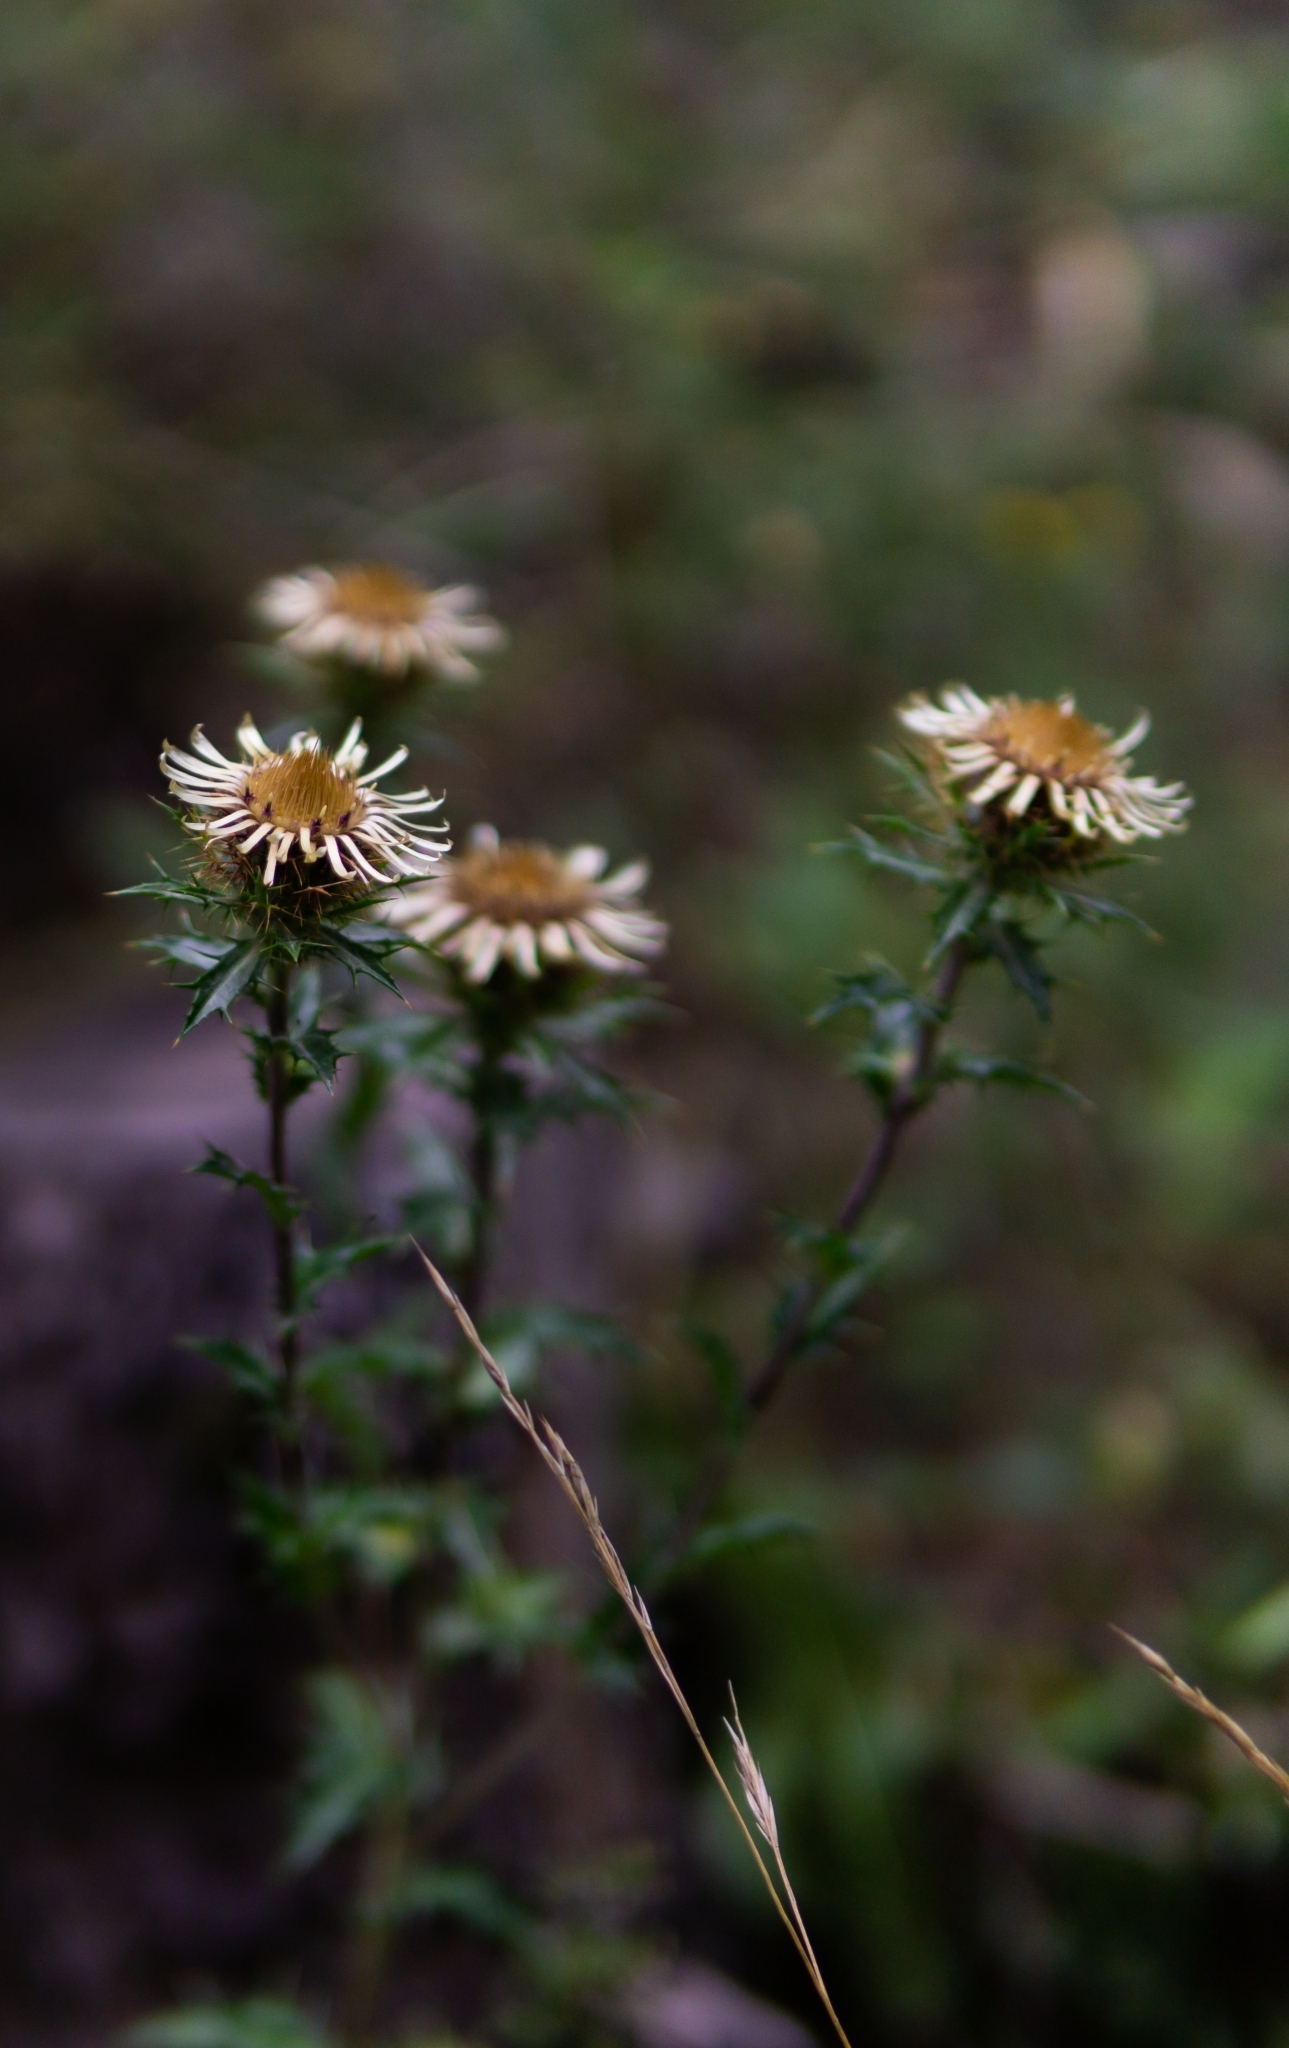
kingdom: Plantae
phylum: Tracheophyta
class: Magnoliopsida
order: Asterales
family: Asteraceae
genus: Carlina
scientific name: Carlina vulgaris
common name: Carline thistle
